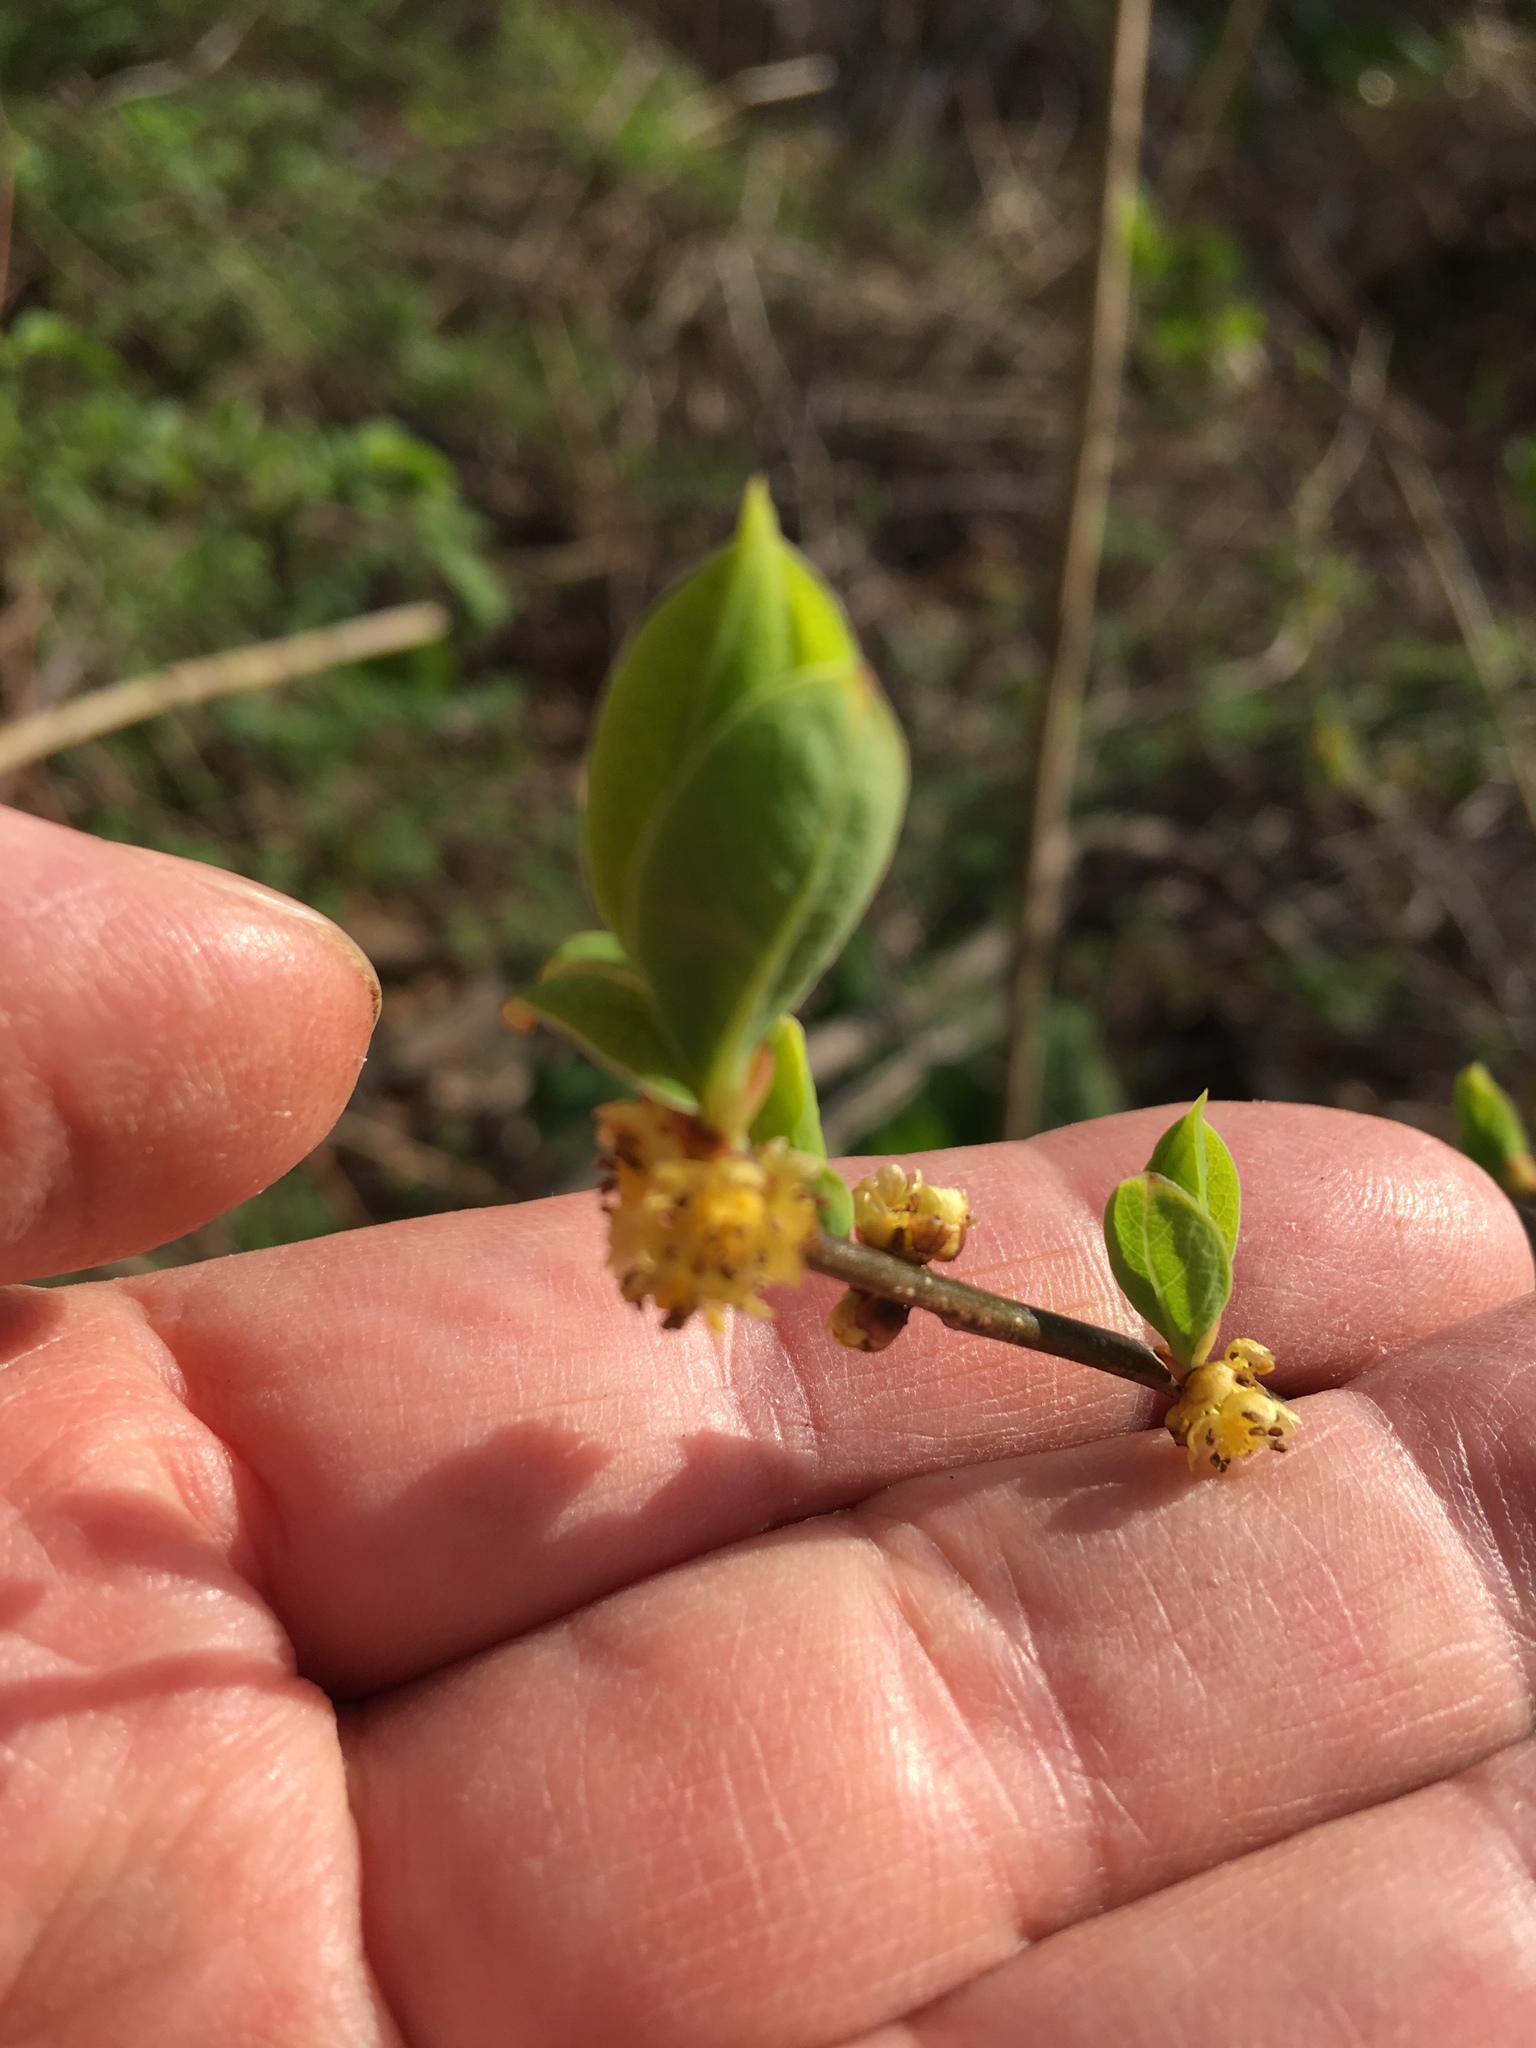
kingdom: Plantae
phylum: Tracheophyta
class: Magnoliopsida
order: Laurales
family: Lauraceae
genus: Lindera
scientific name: Lindera benzoin
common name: Spicebush
